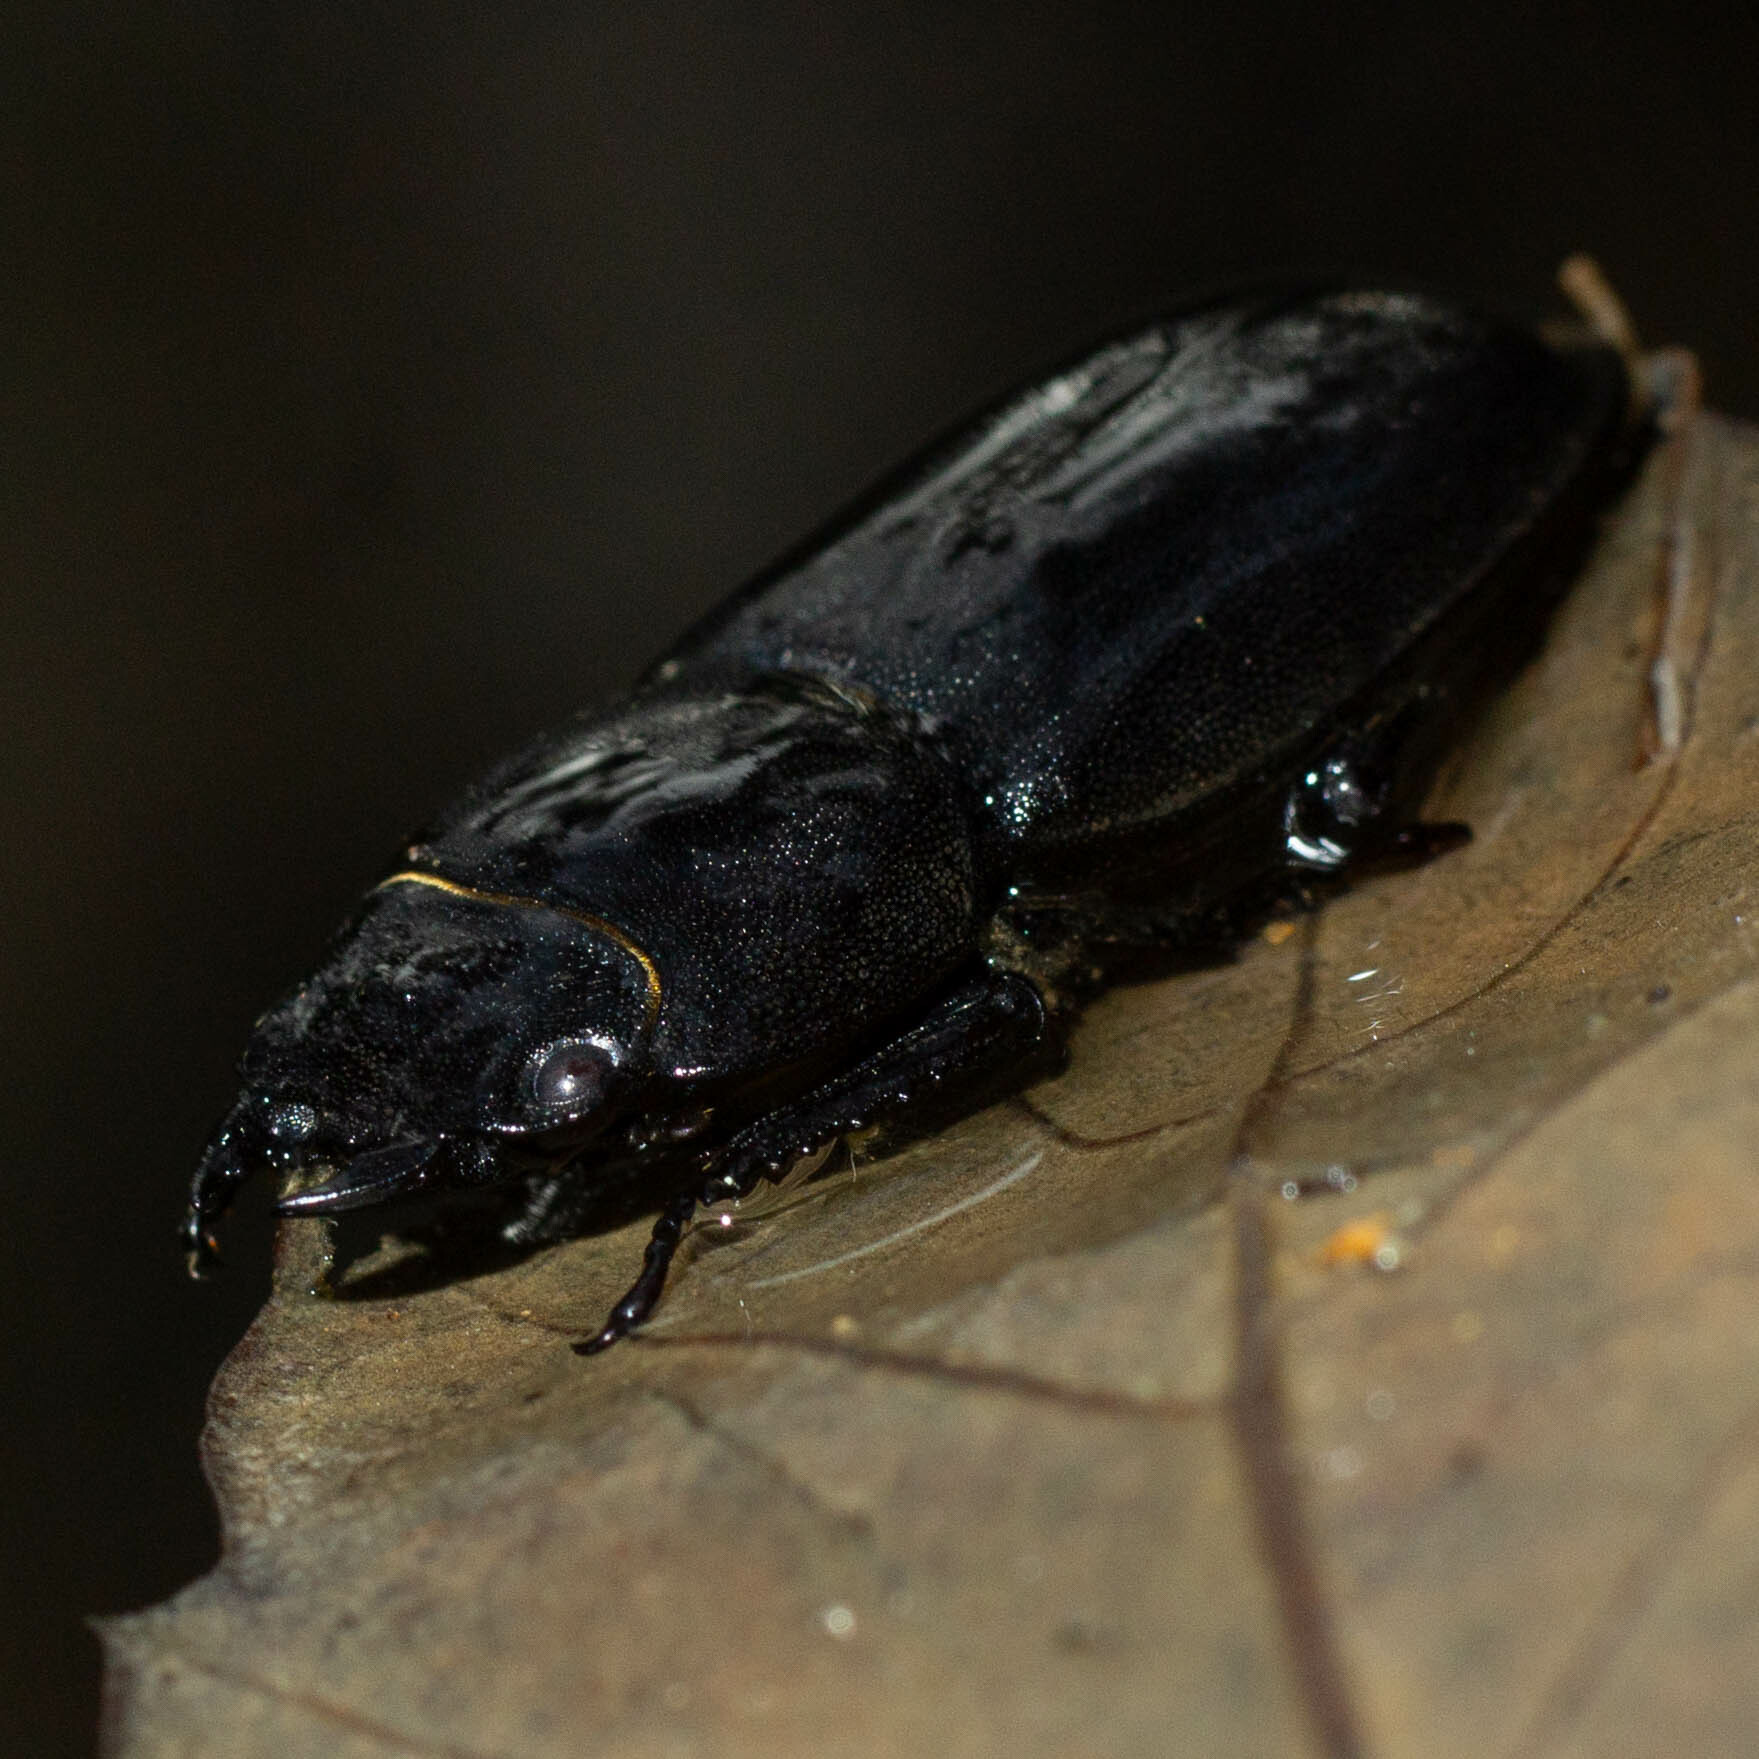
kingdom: Animalia
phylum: Arthropoda
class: Insecta
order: Coleoptera
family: Lucanidae
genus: Dorcus
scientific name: Dorcus parallelipipedus
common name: Lesser stag beetle
